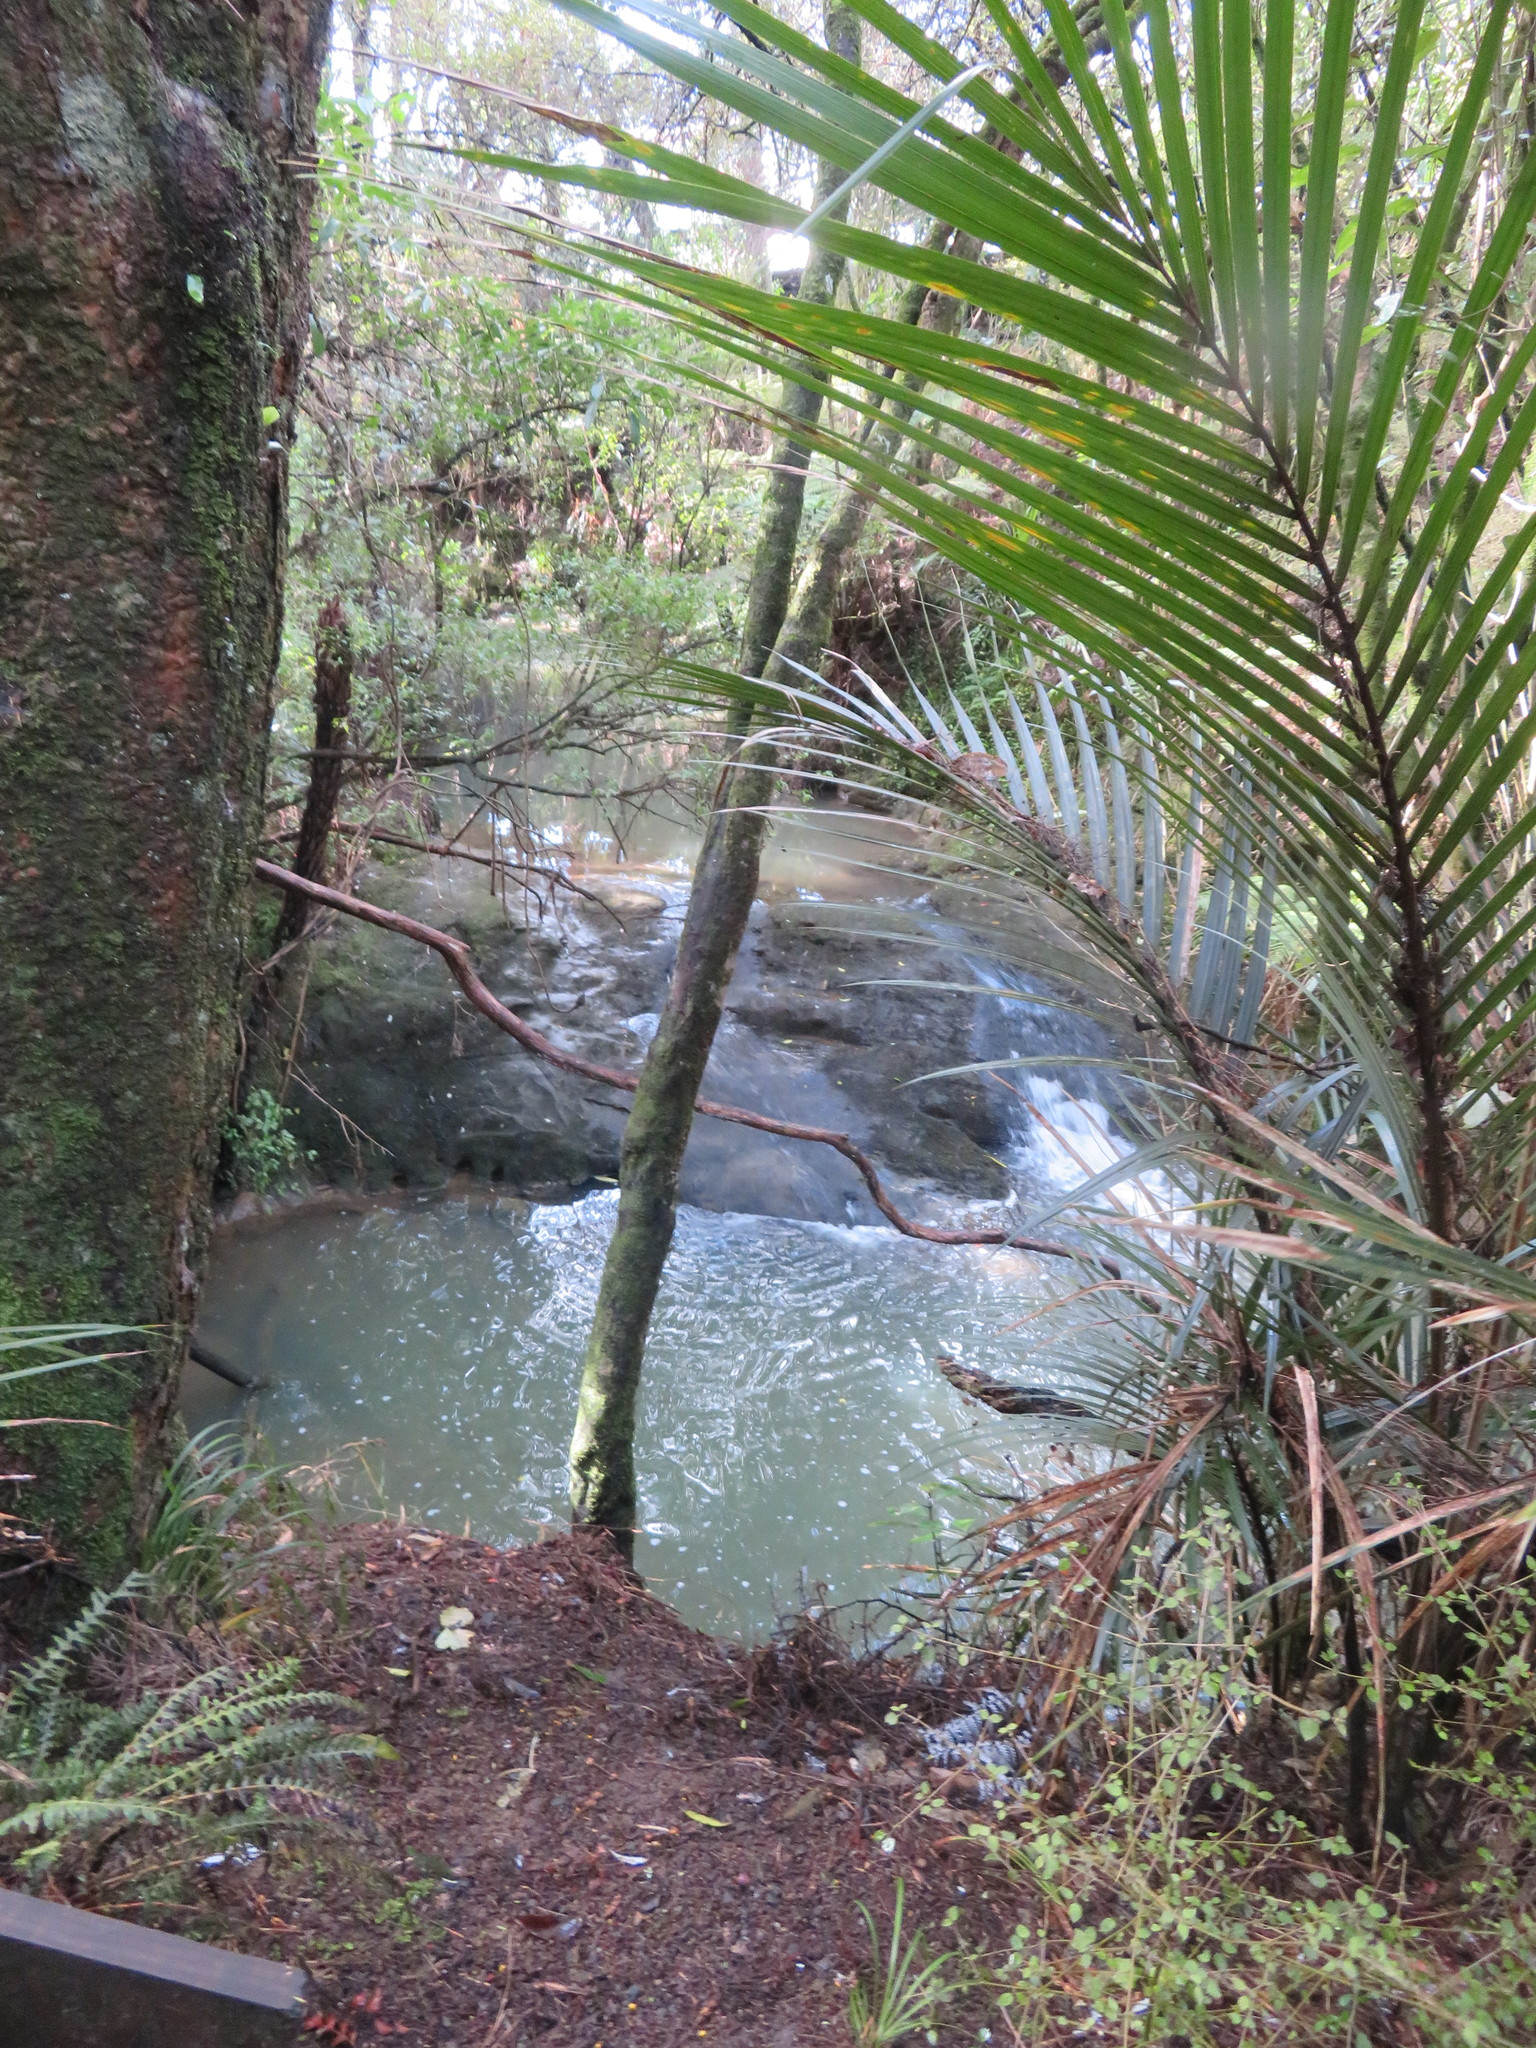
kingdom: Plantae
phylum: Tracheophyta
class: Liliopsida
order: Arecales
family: Arecaceae
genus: Rhopalostylis
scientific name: Rhopalostylis sapida
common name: Feather-duster palm
